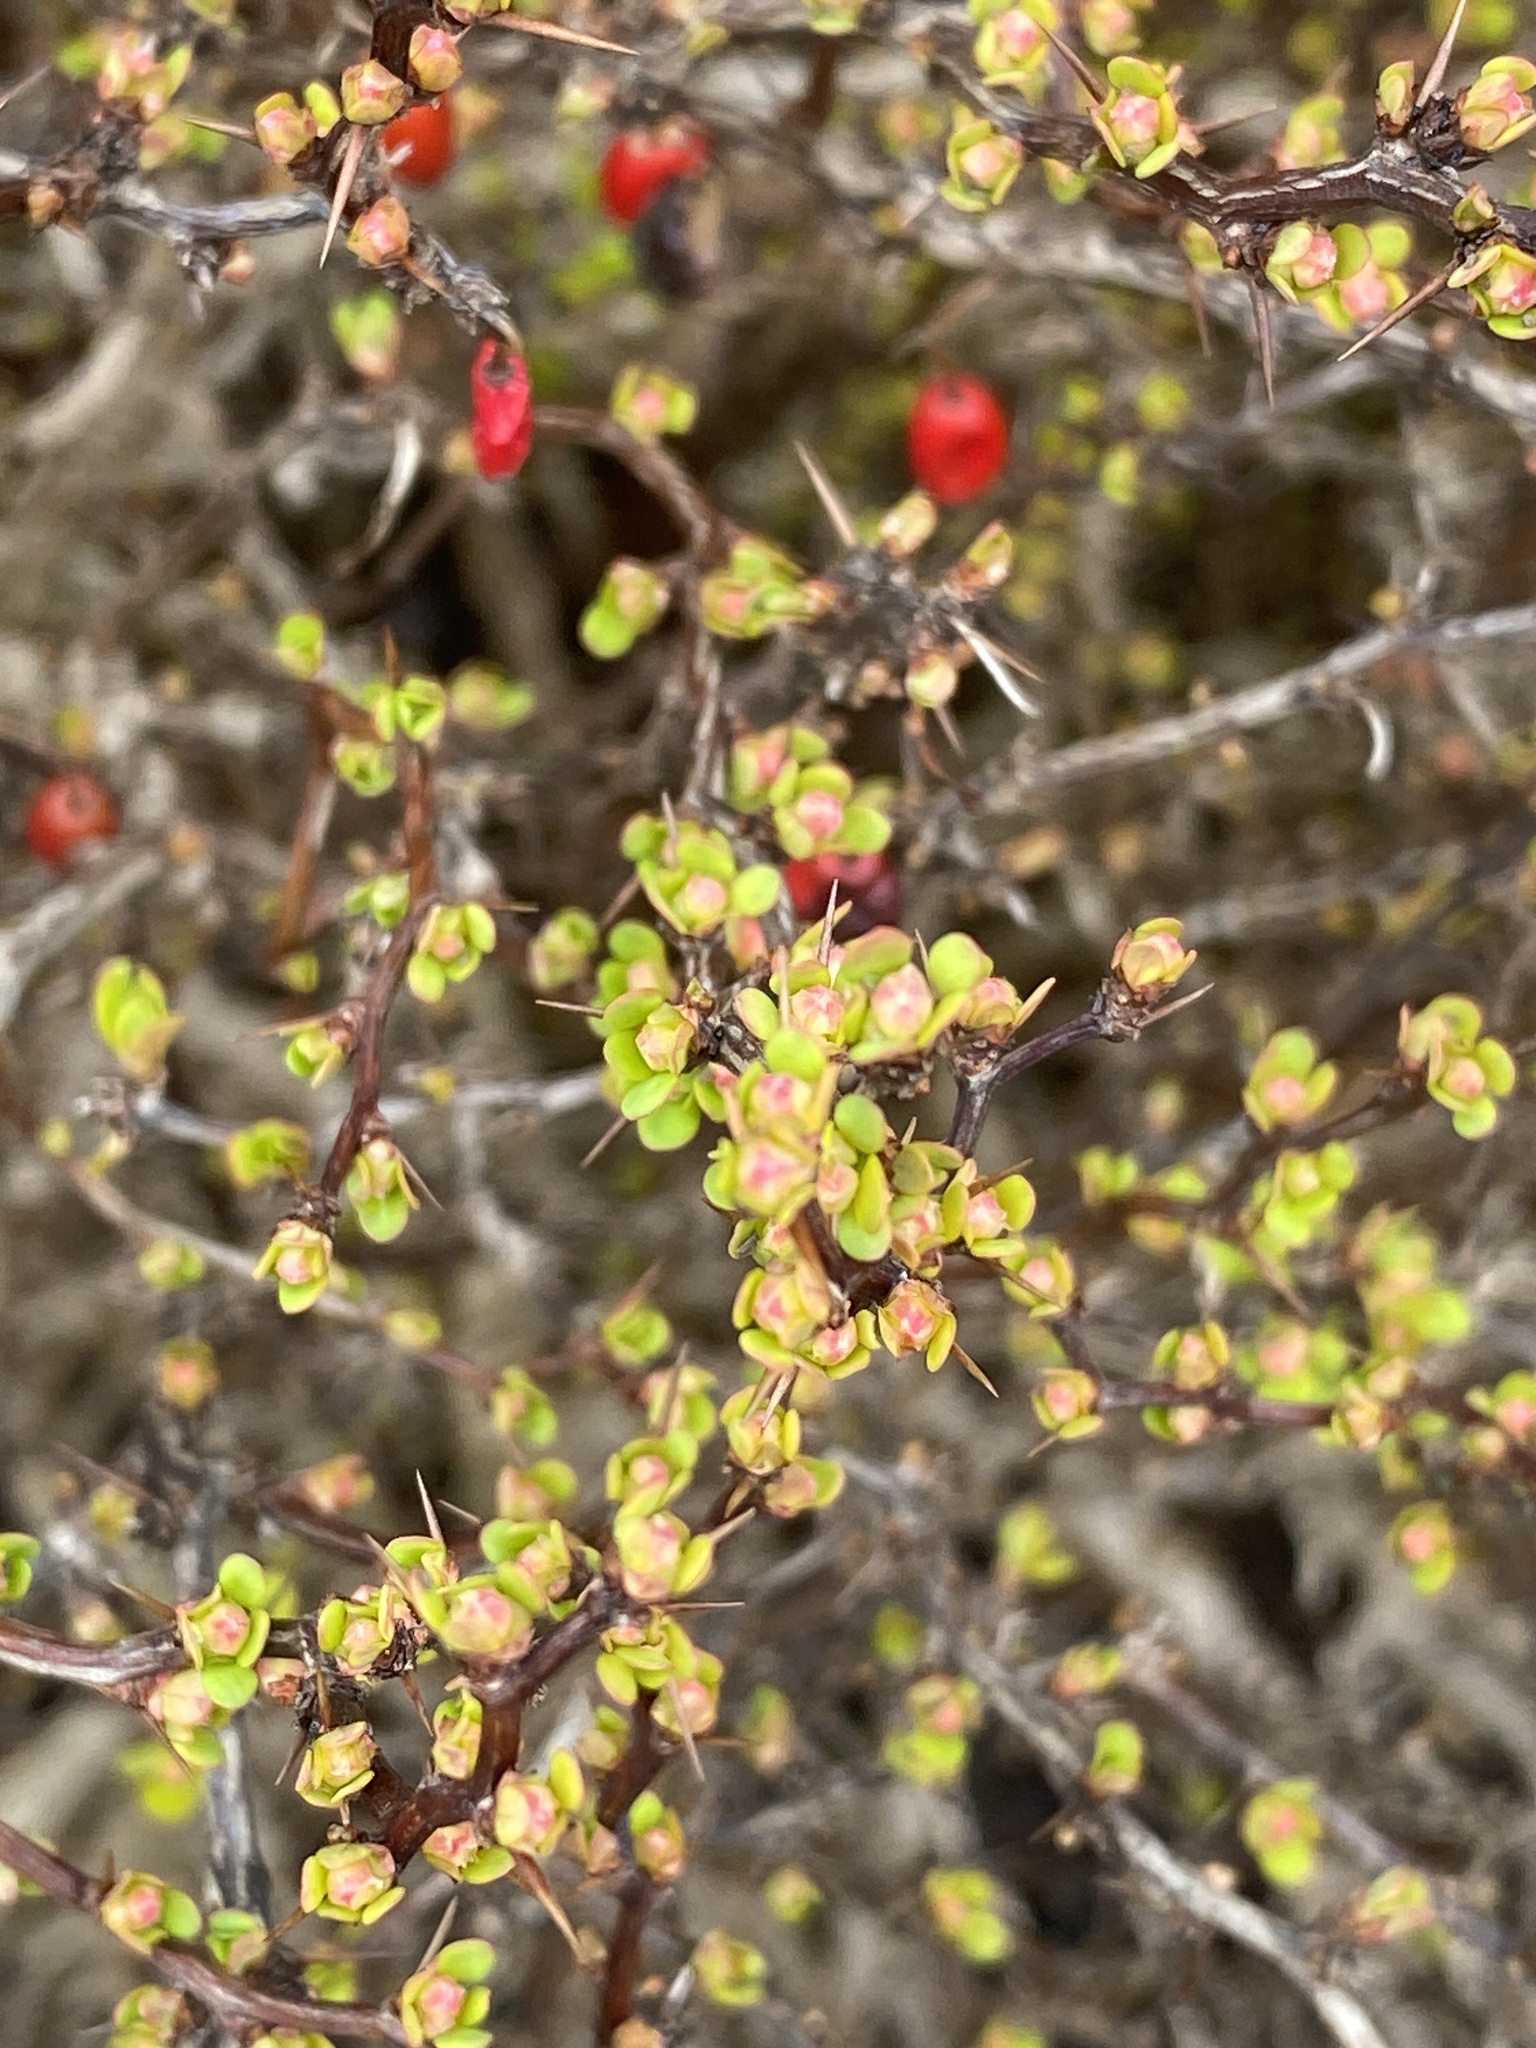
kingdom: Plantae
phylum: Tracheophyta
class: Magnoliopsida
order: Ranunculales
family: Berberidaceae
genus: Berberis
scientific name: Berberis thunbergii
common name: Japanese barberry
